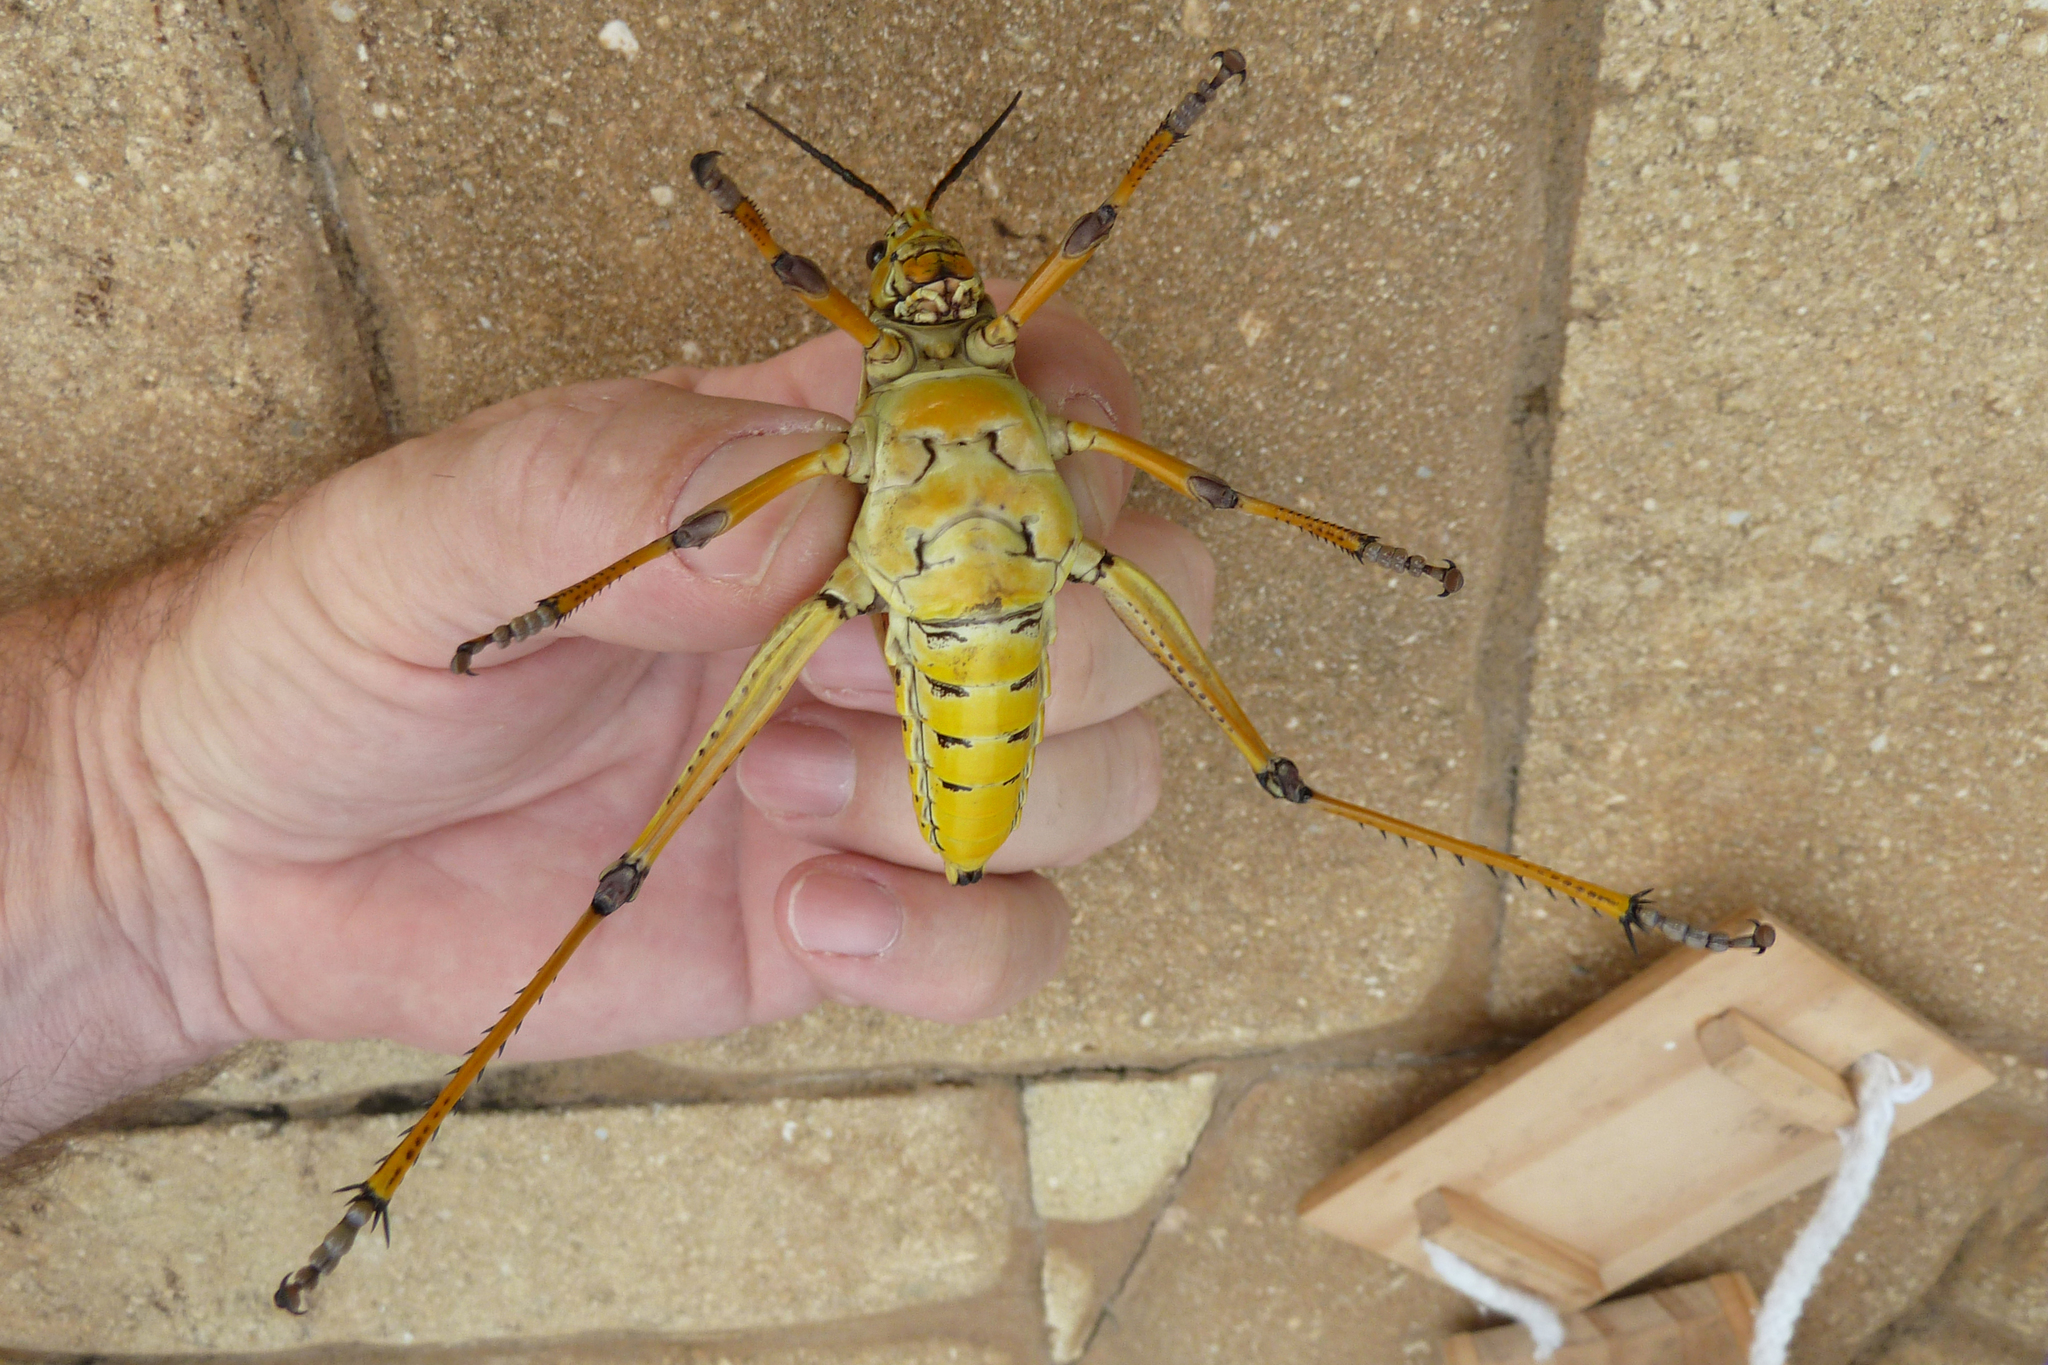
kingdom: Animalia
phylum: Arthropoda
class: Insecta
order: Orthoptera
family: Romaleidae
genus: Romalea
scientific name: Romalea microptera
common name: Eastern lubber grasshopper
